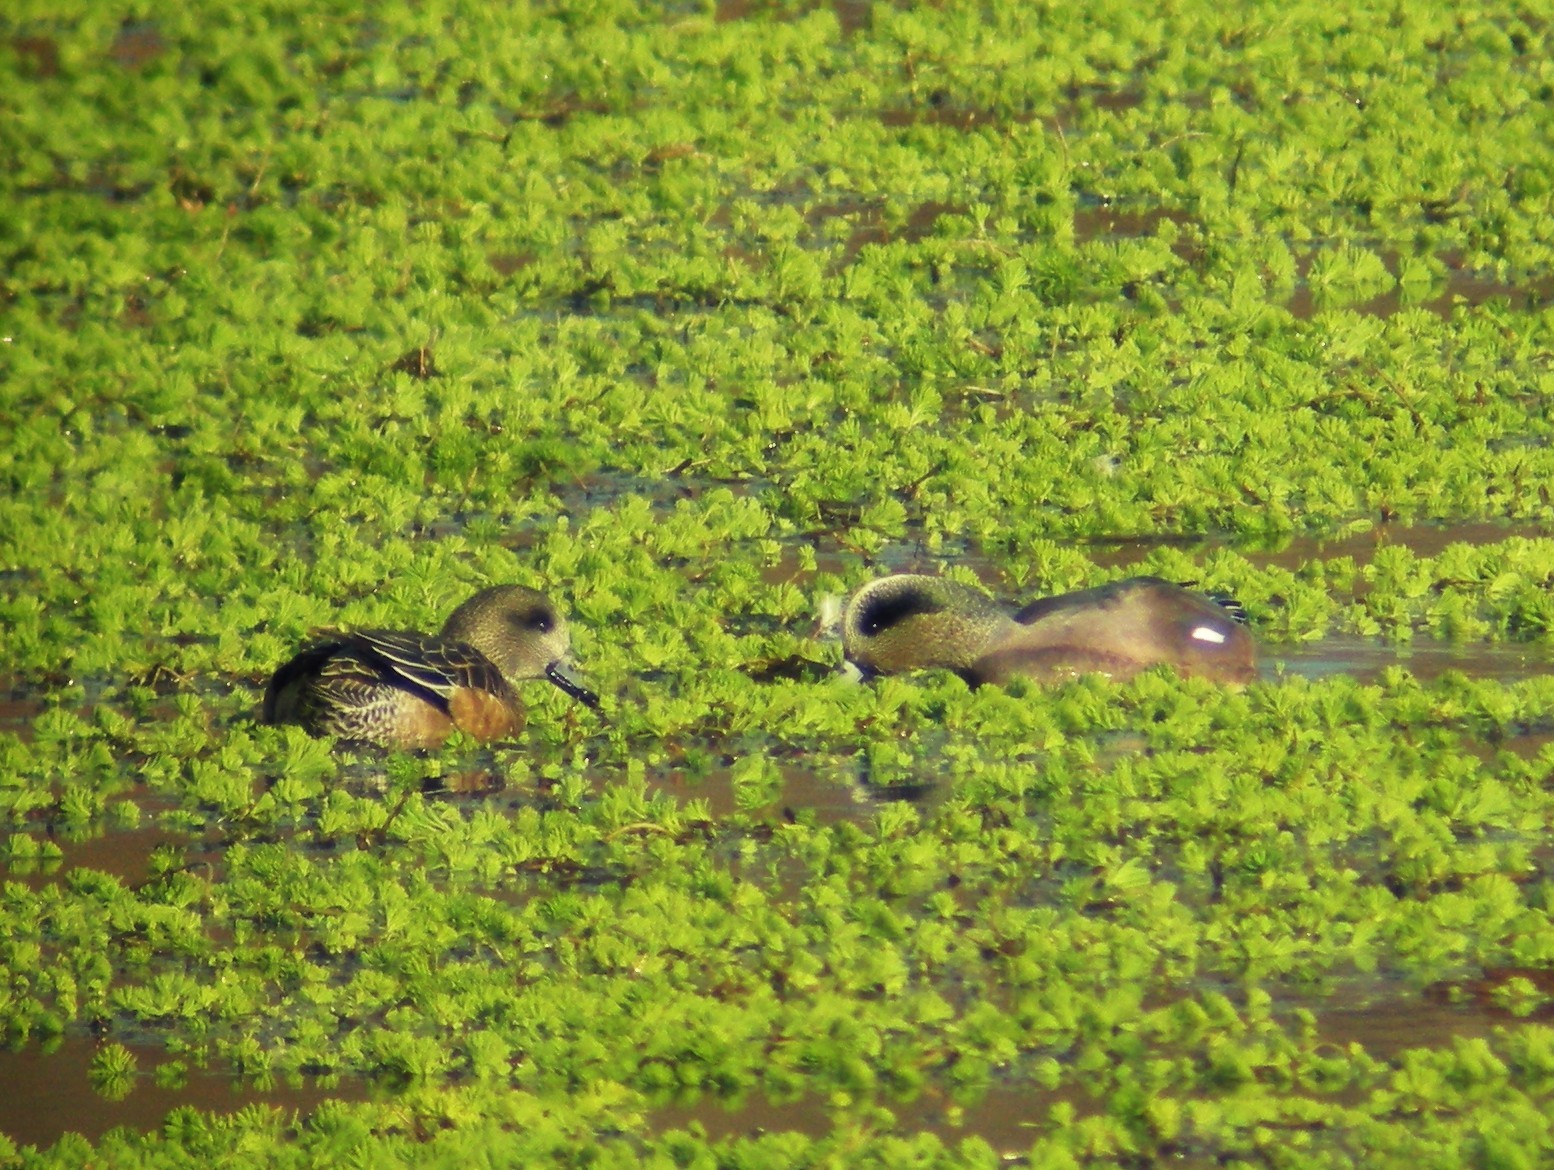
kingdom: Animalia
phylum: Chordata
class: Aves
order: Anseriformes
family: Anatidae
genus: Mareca
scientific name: Mareca americana
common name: American wigeon
